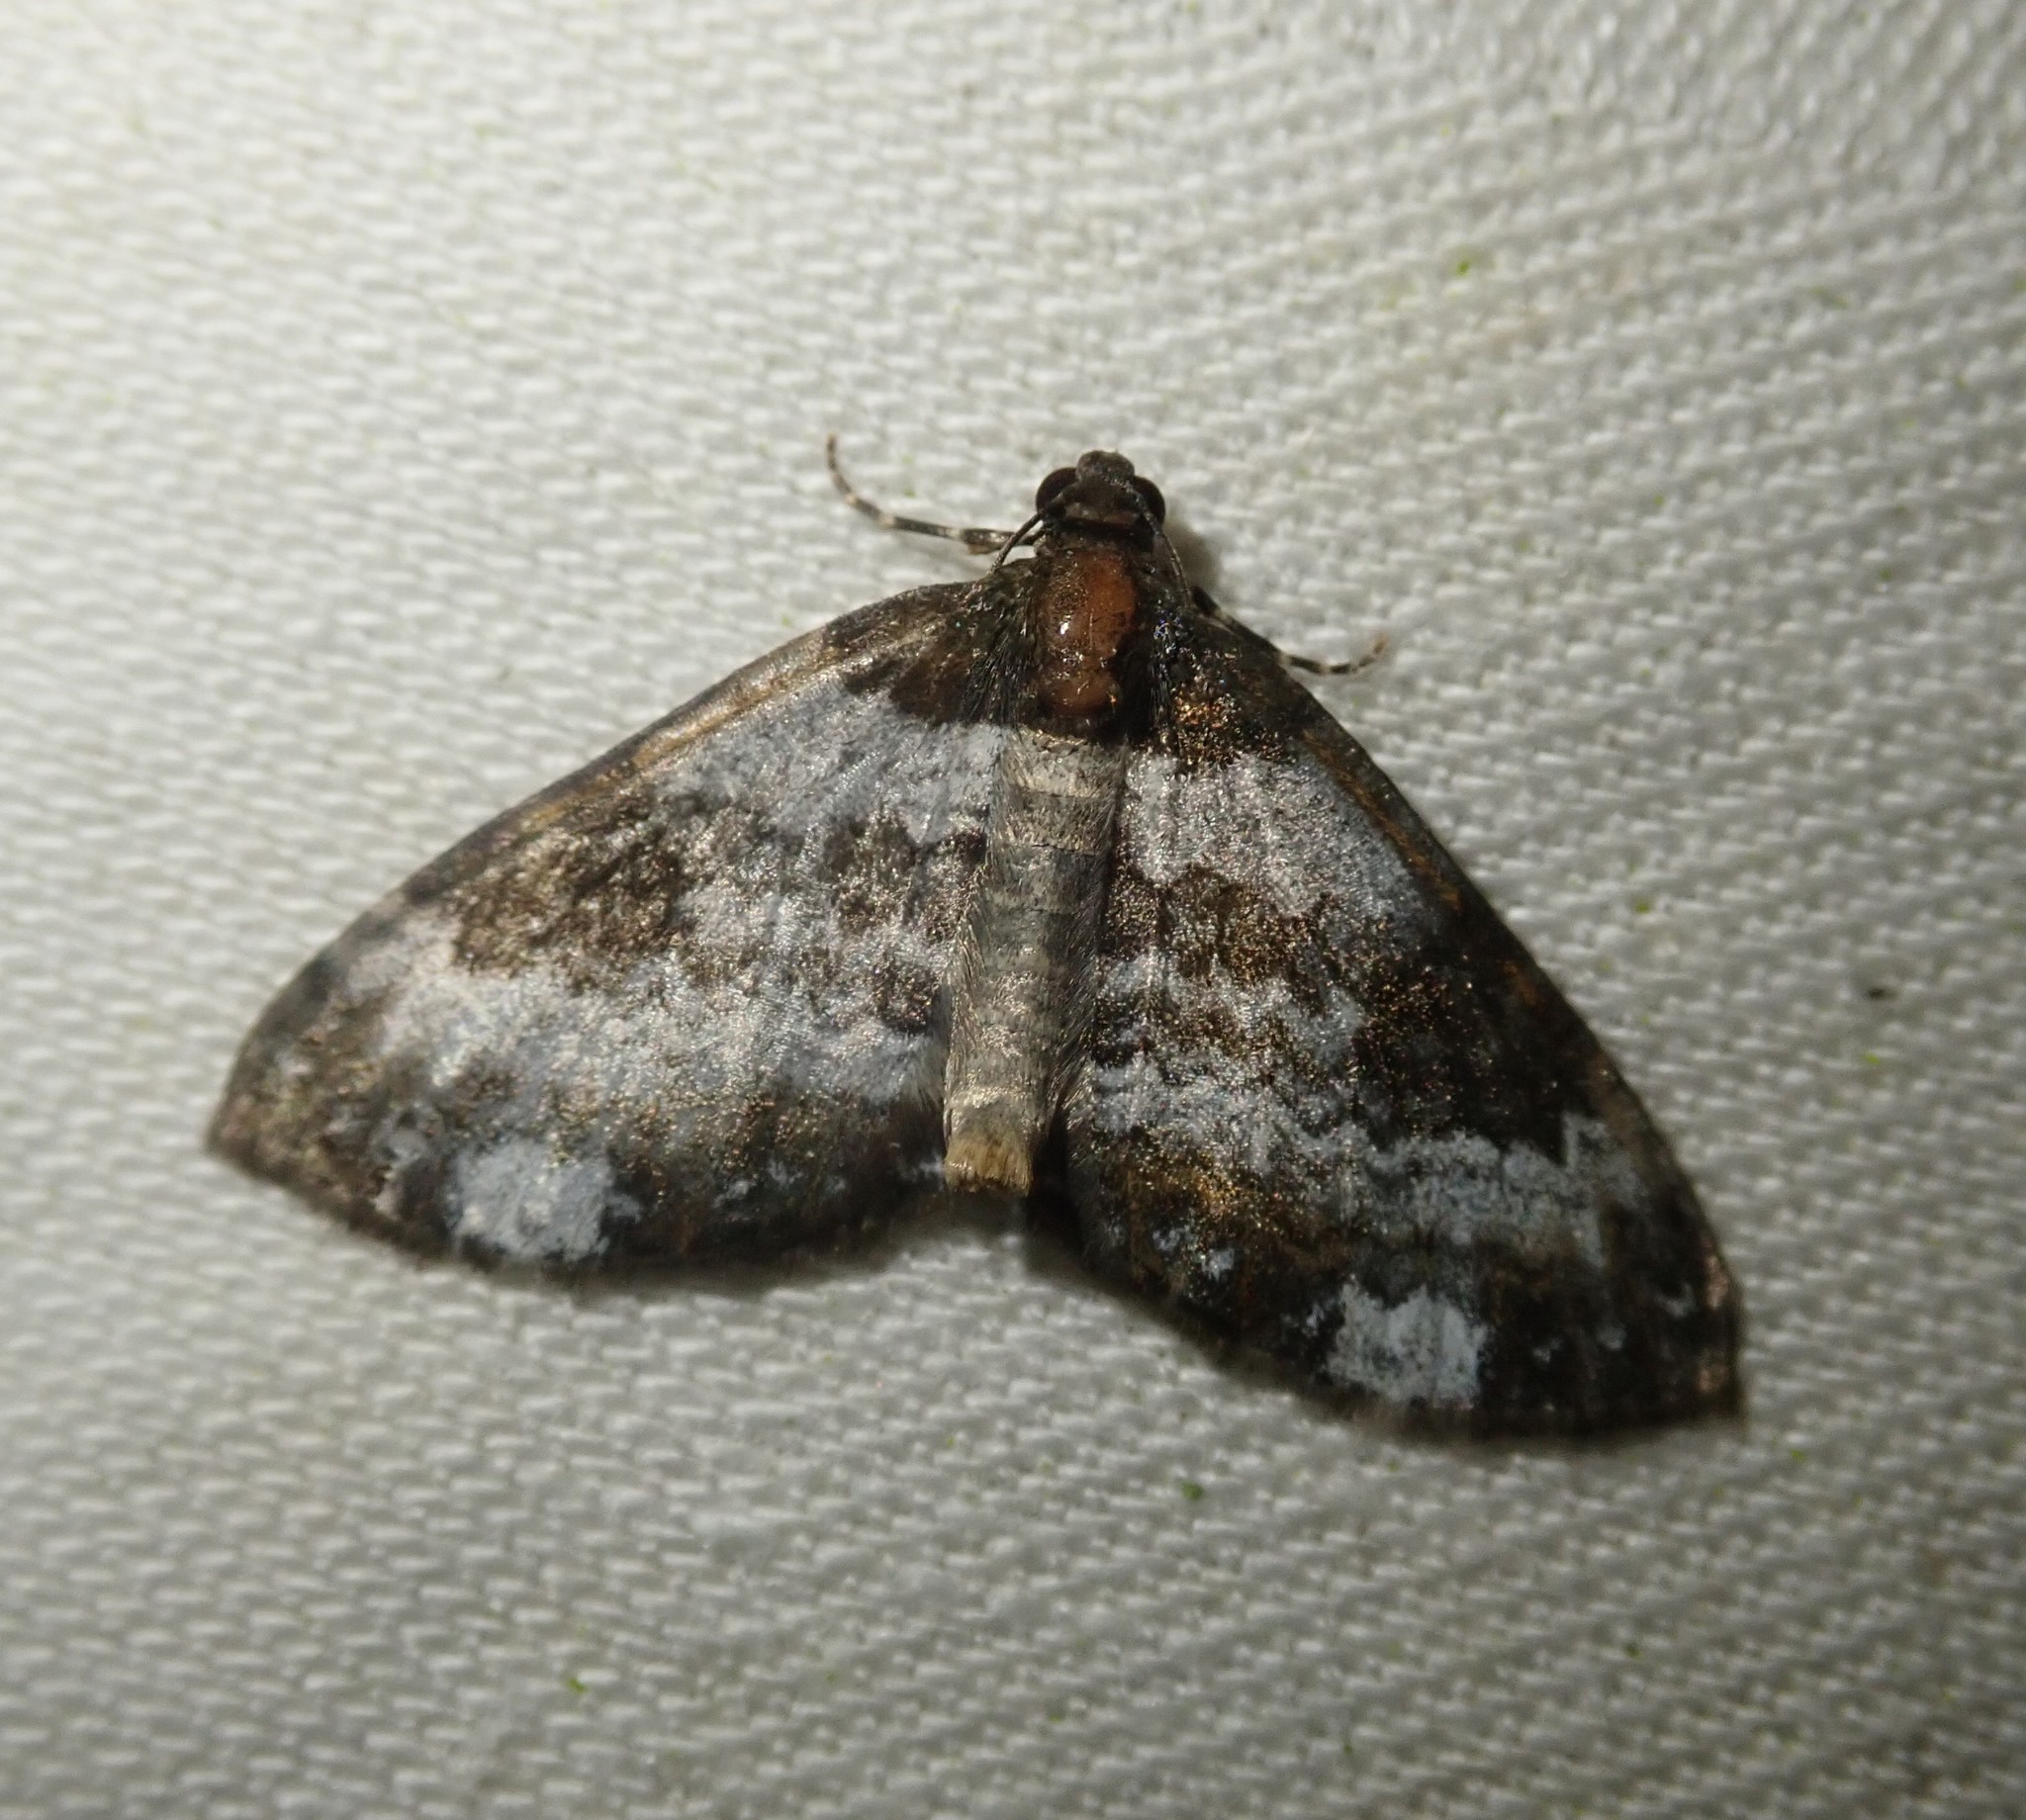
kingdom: Animalia
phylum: Arthropoda
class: Insecta
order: Lepidoptera
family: Geometridae
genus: Melanthia
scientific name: Melanthia procellata
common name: Pretty chalk carpet
